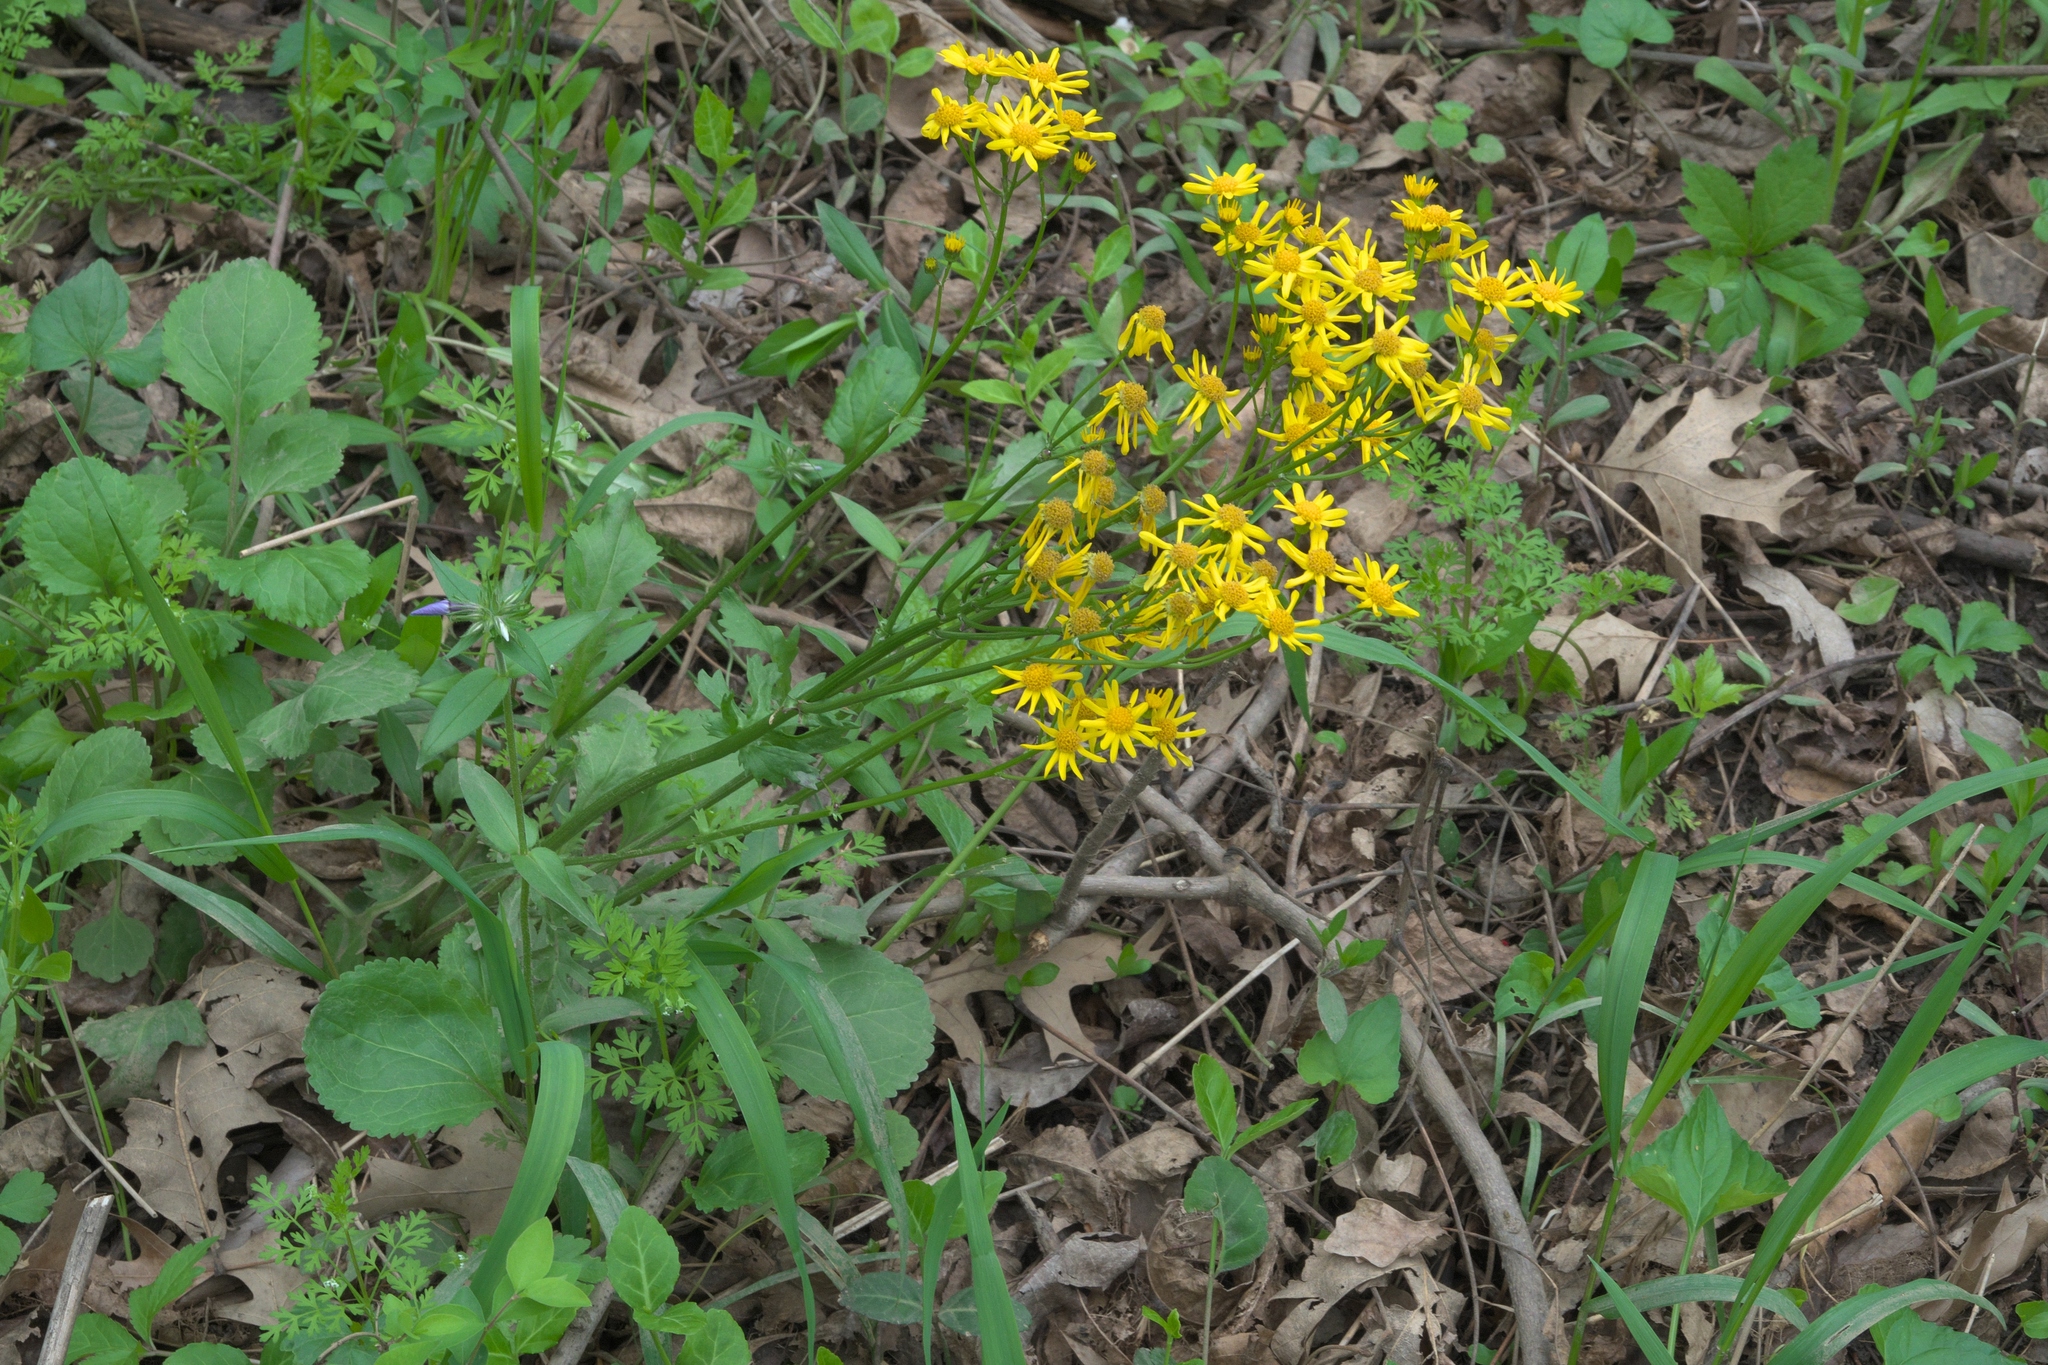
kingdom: Plantae
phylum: Tracheophyta
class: Magnoliopsida
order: Asterales
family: Asteraceae
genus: Packera
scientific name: Packera obovata
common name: Round-leaf ragwort
